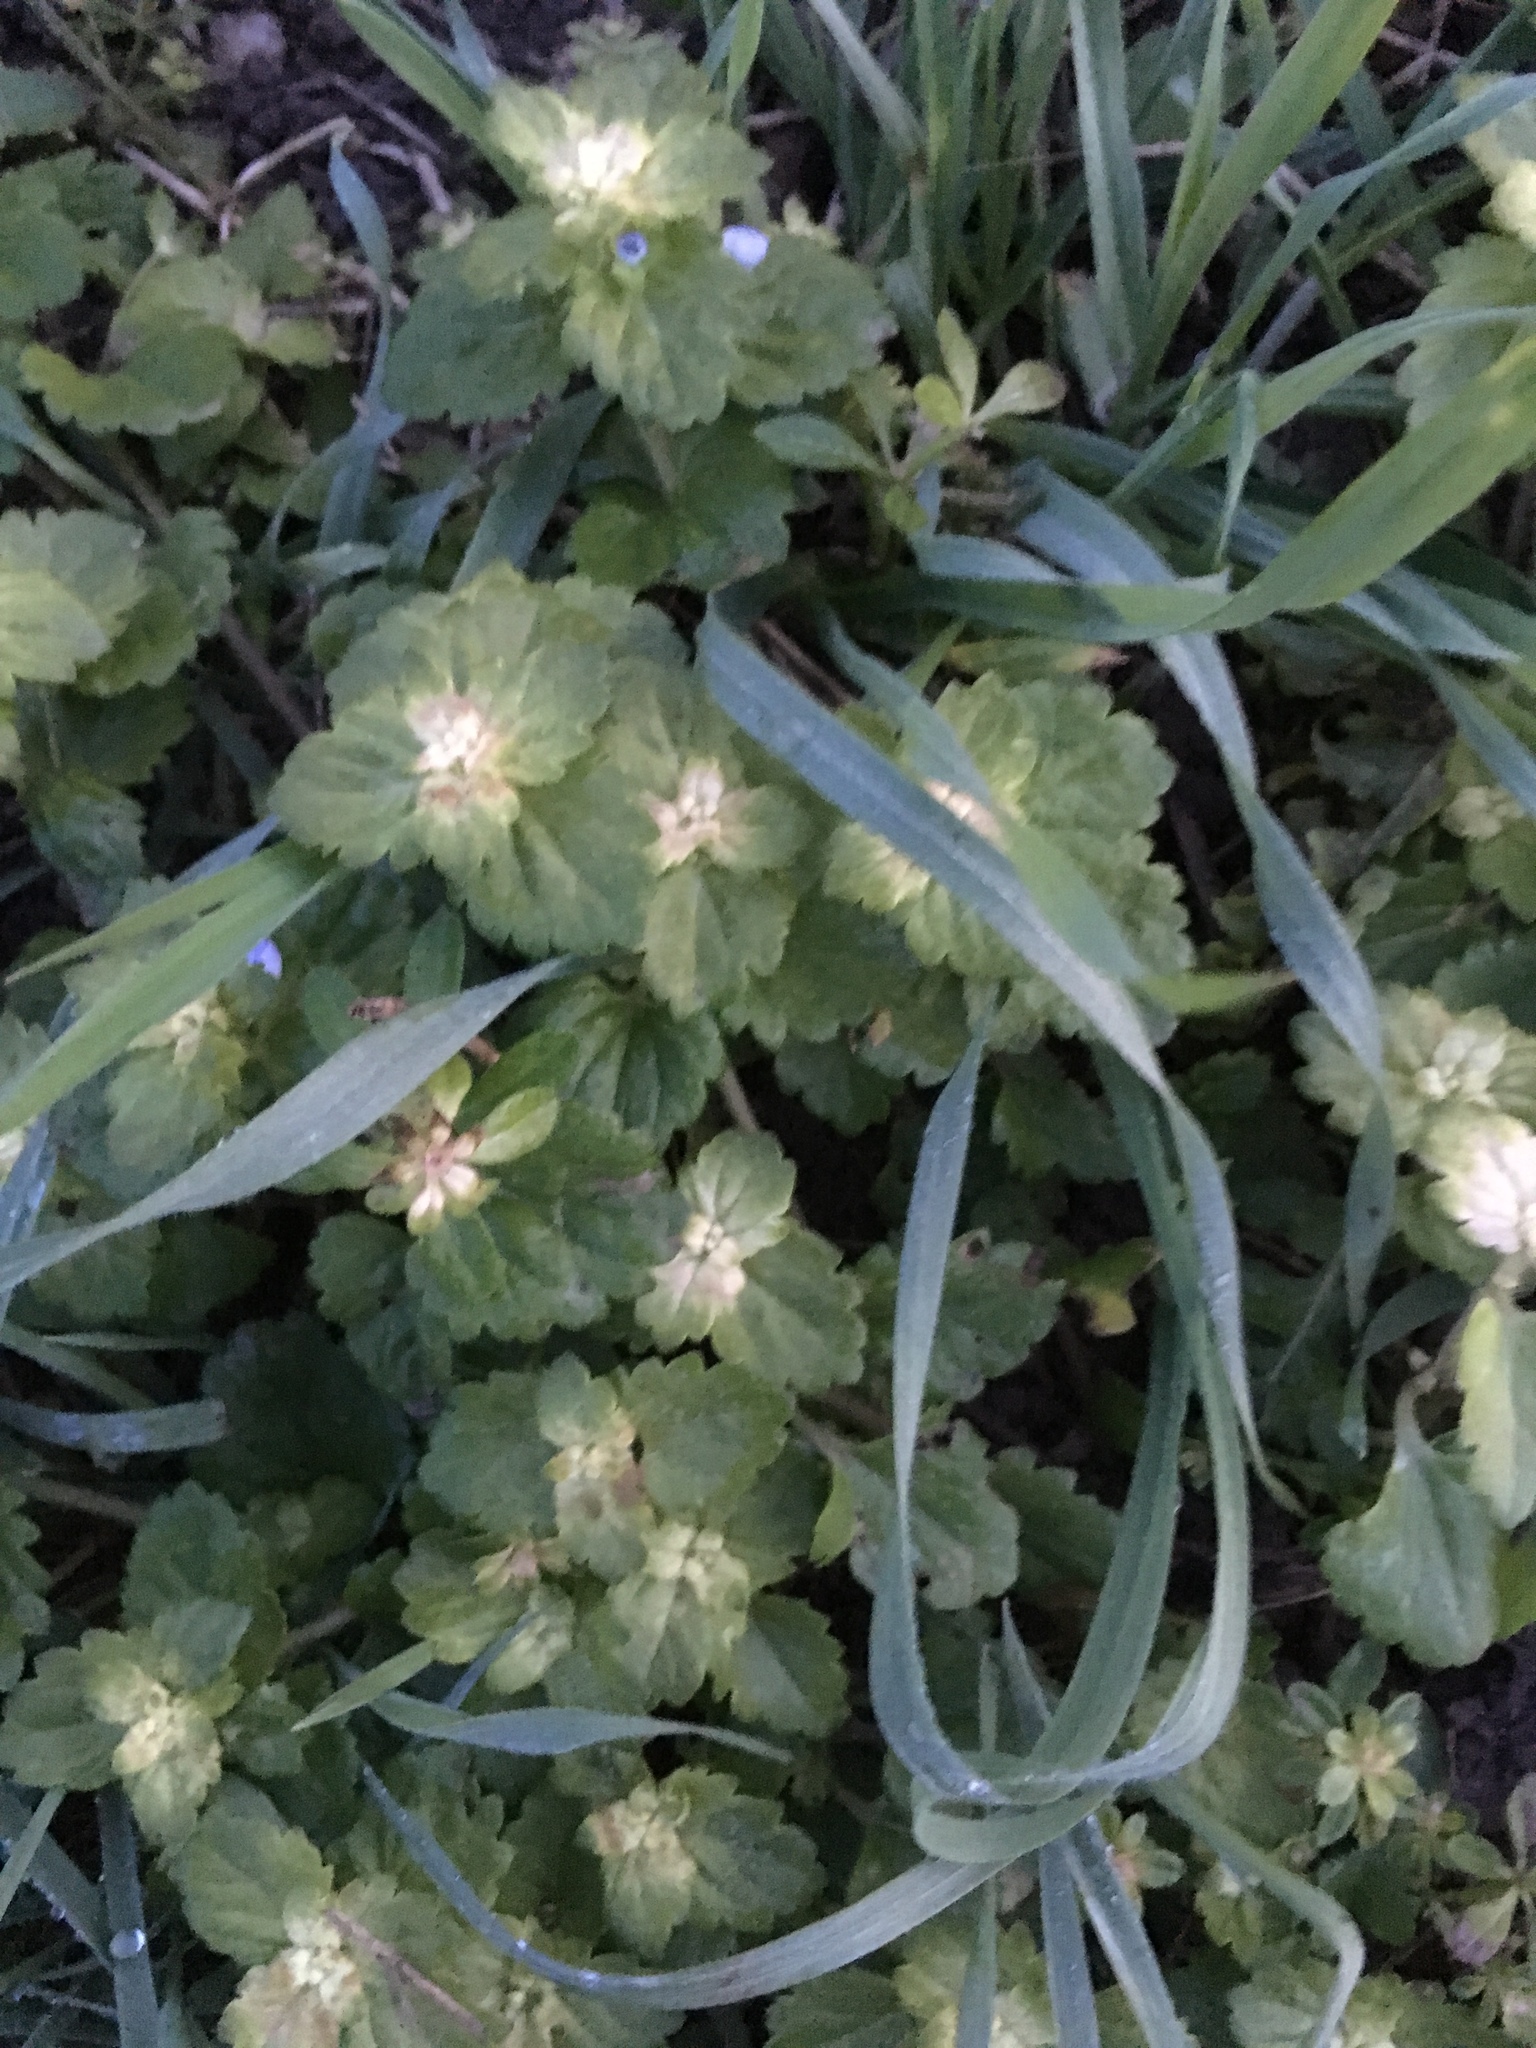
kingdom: Plantae
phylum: Tracheophyta
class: Magnoliopsida
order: Lamiales
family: Plantaginaceae
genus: Veronica
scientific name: Veronica persica
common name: Common field-speedwell
